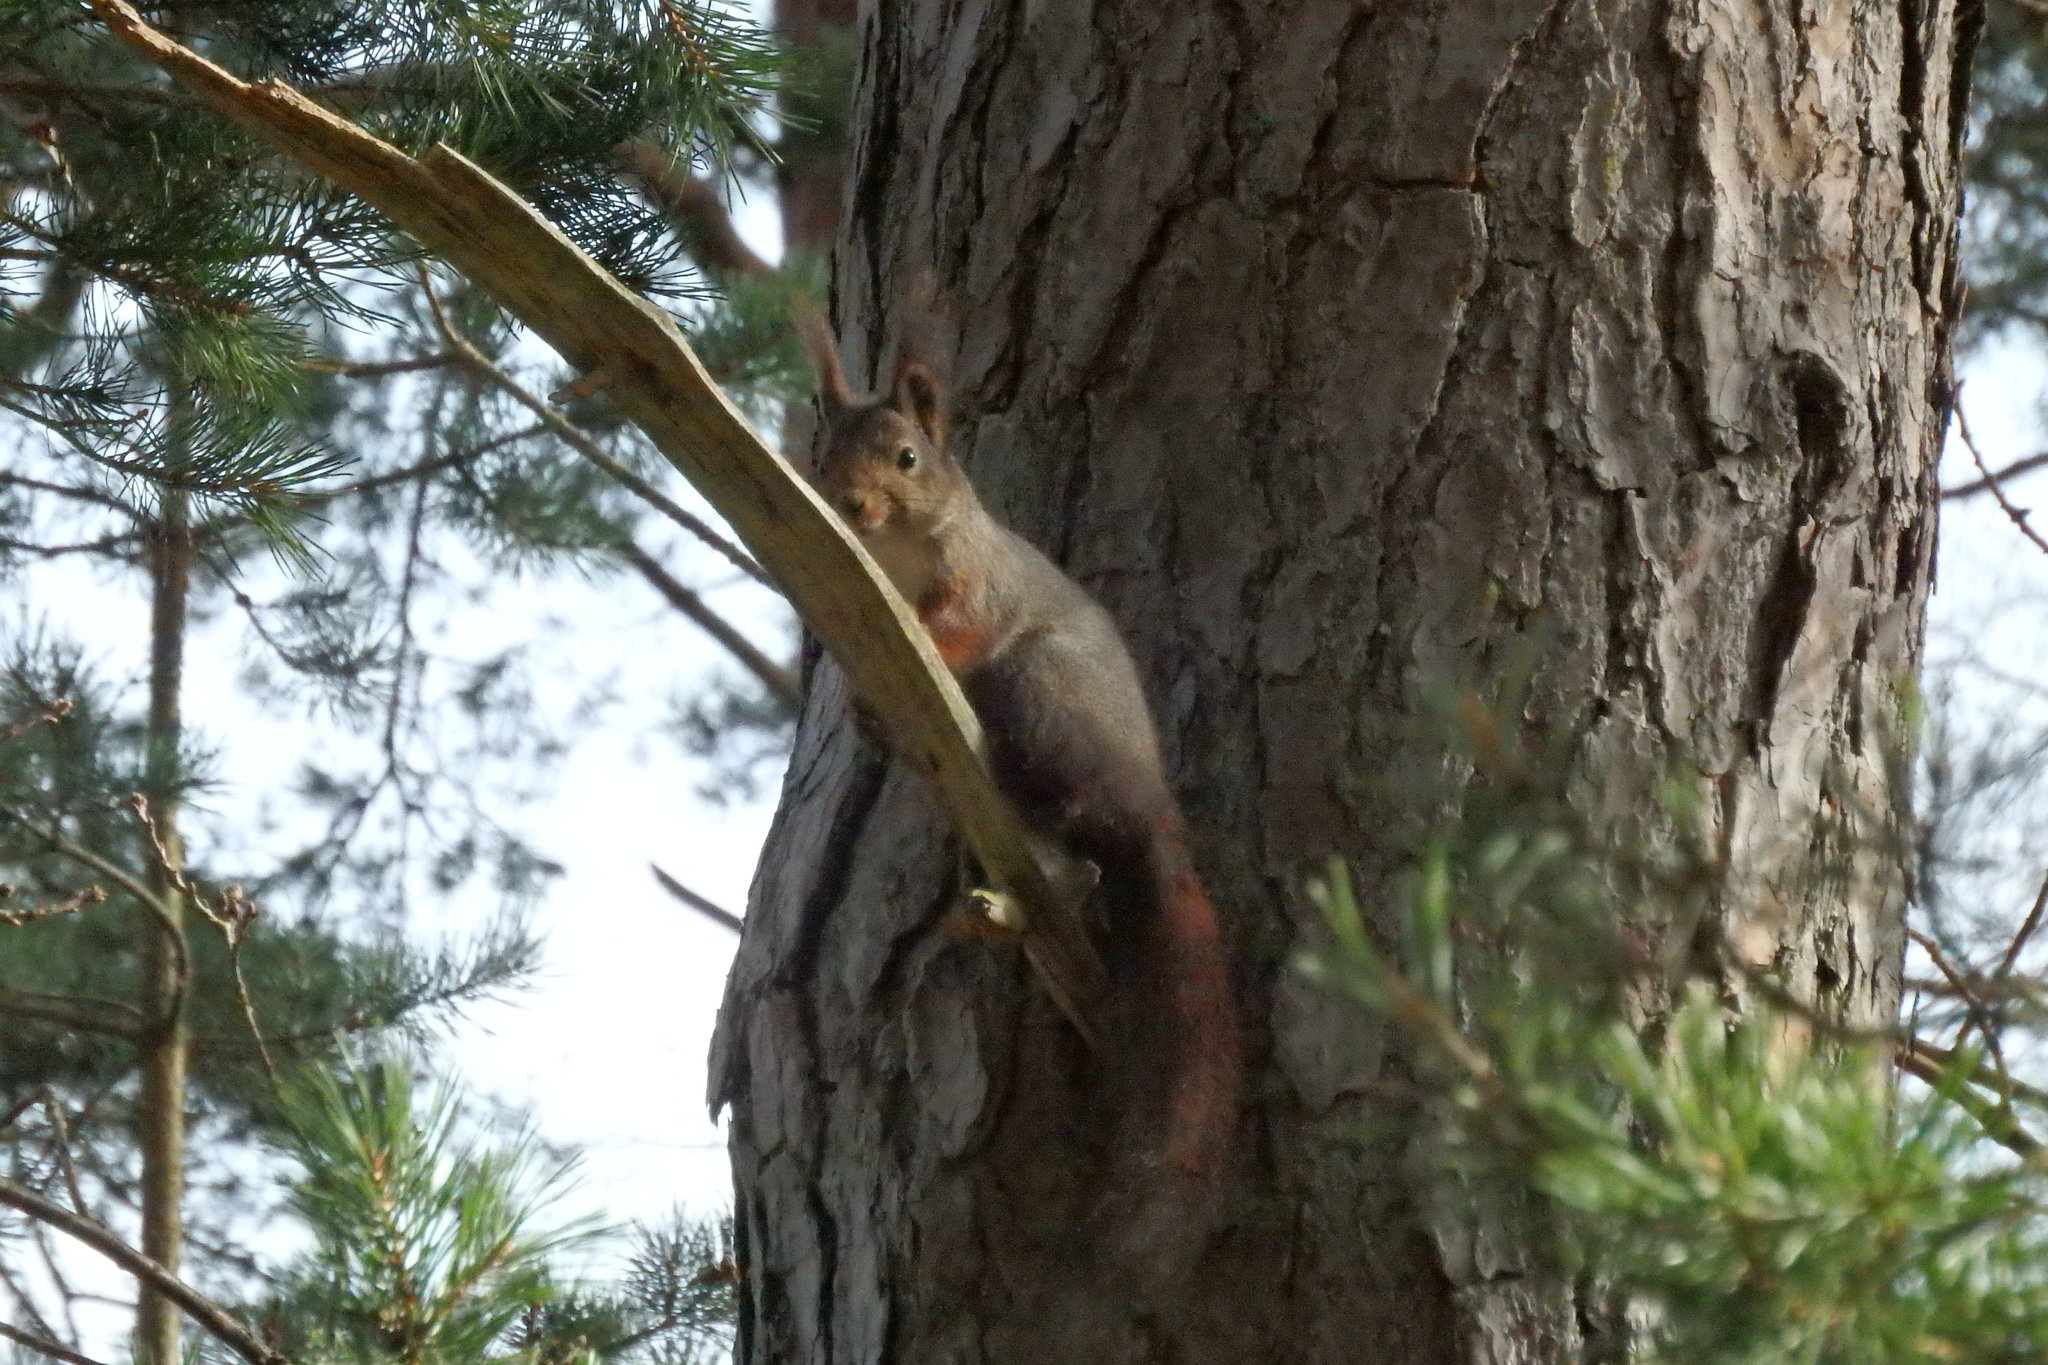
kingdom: Animalia
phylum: Chordata
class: Mammalia
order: Rodentia
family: Sciuridae
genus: Sciurus
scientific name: Sciurus vulgaris
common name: Eurasian red squirrel
